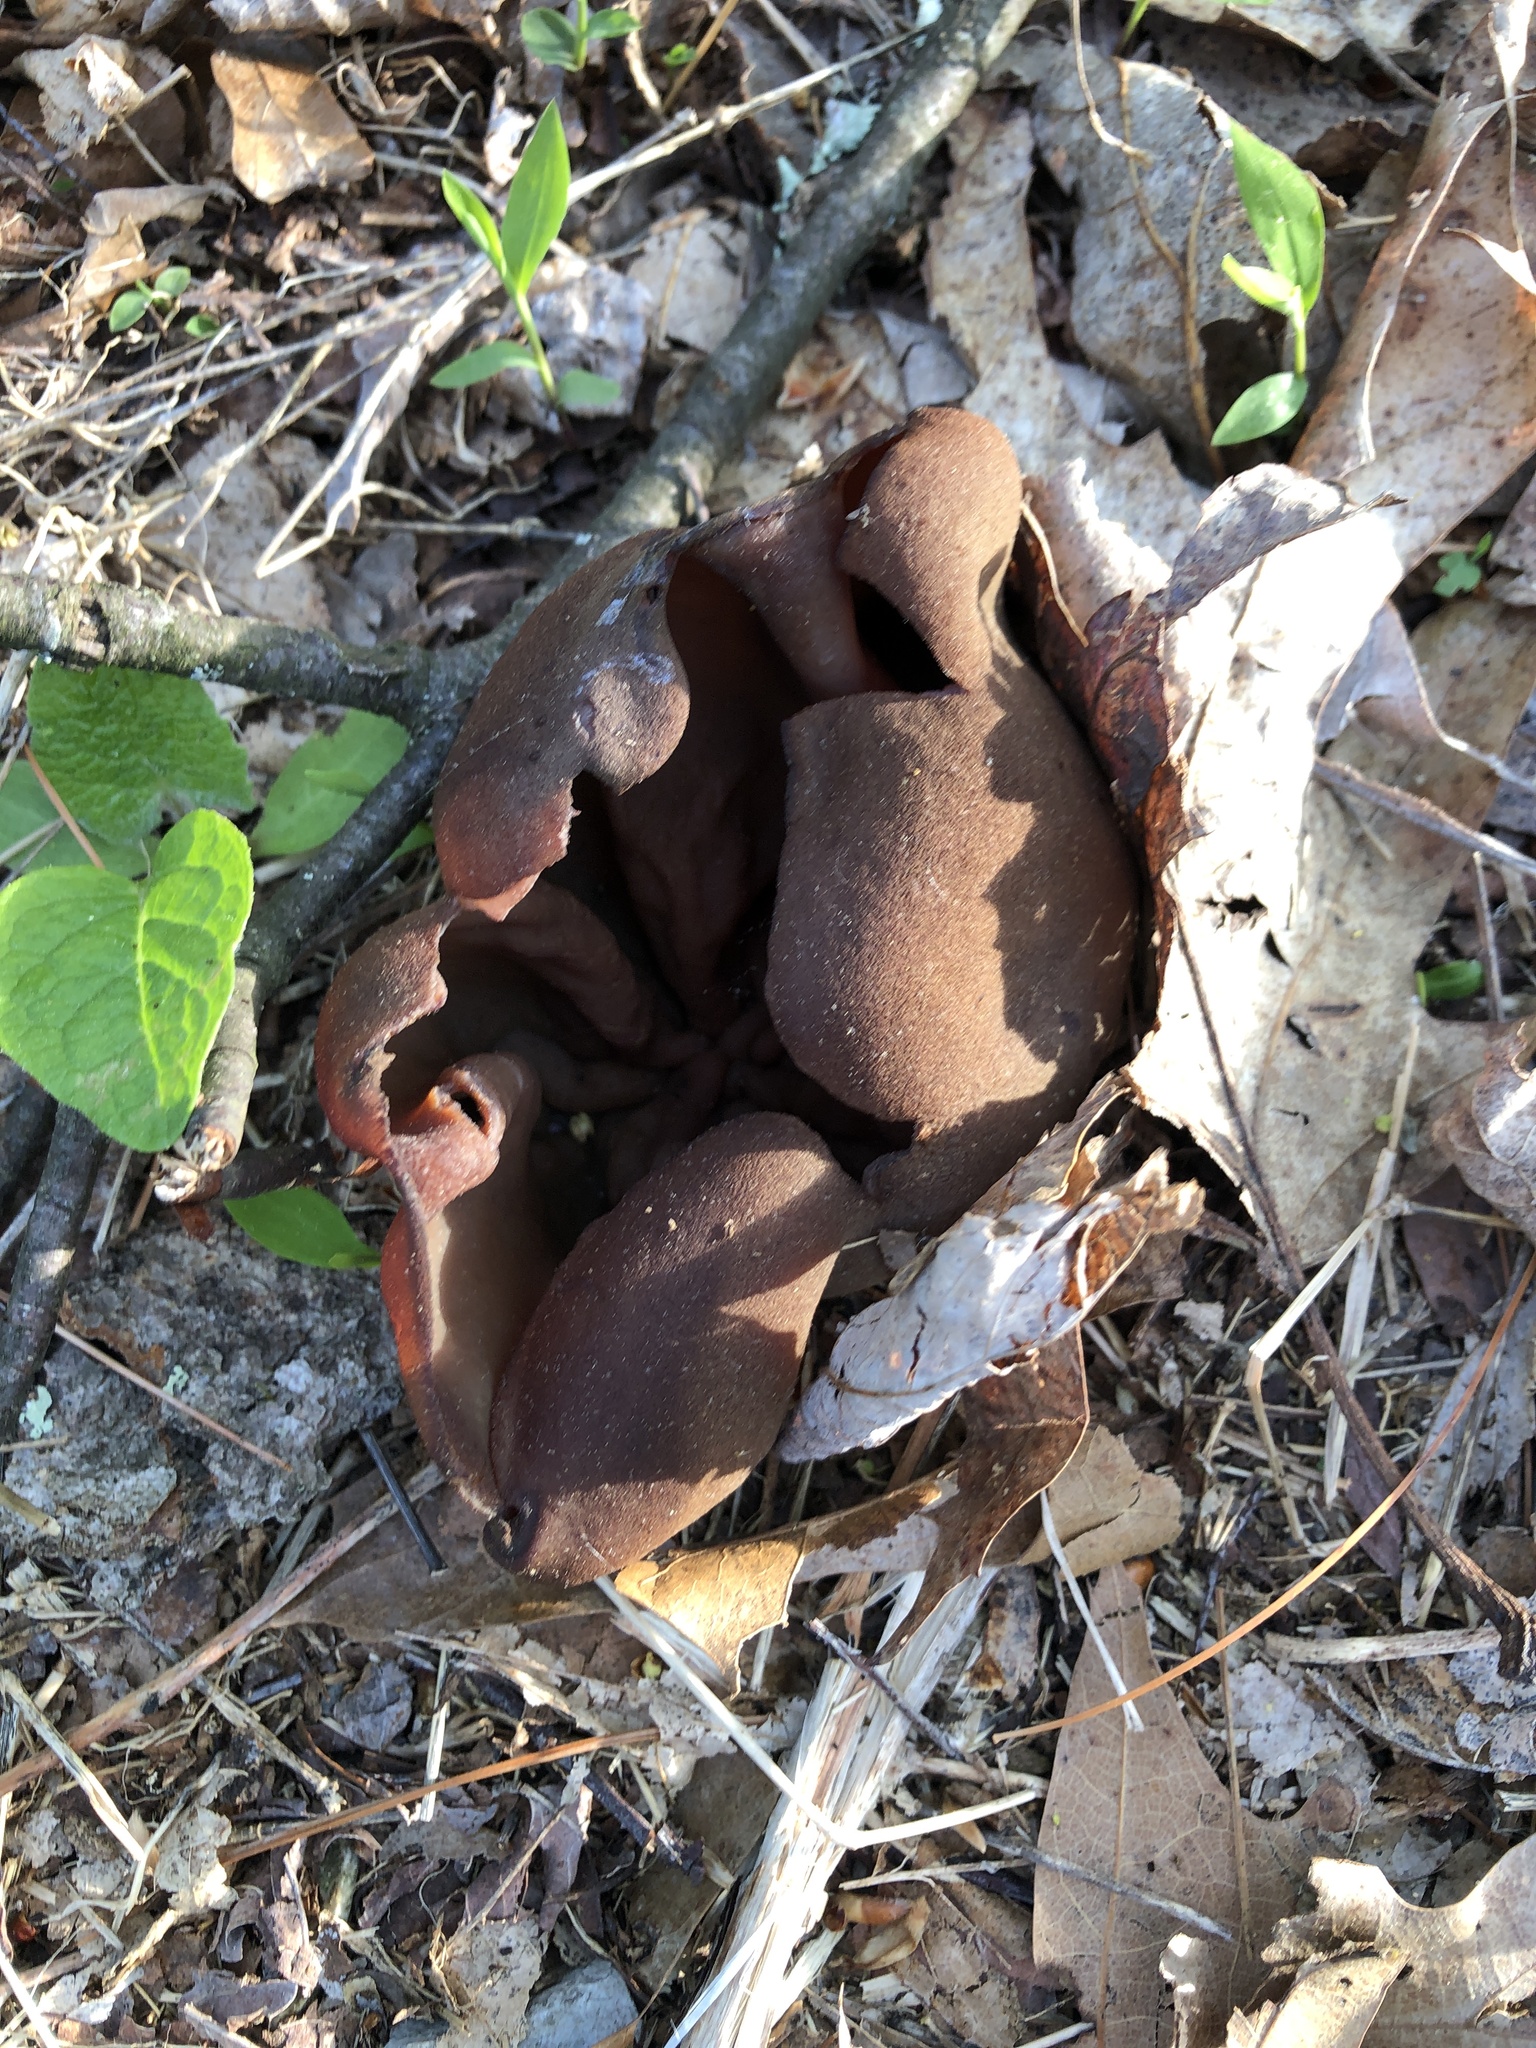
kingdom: Fungi
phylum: Ascomycota
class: Pezizomycetes
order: Pezizales
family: Pezizaceae
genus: Phylloscypha
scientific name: Phylloscypha phyllogena
